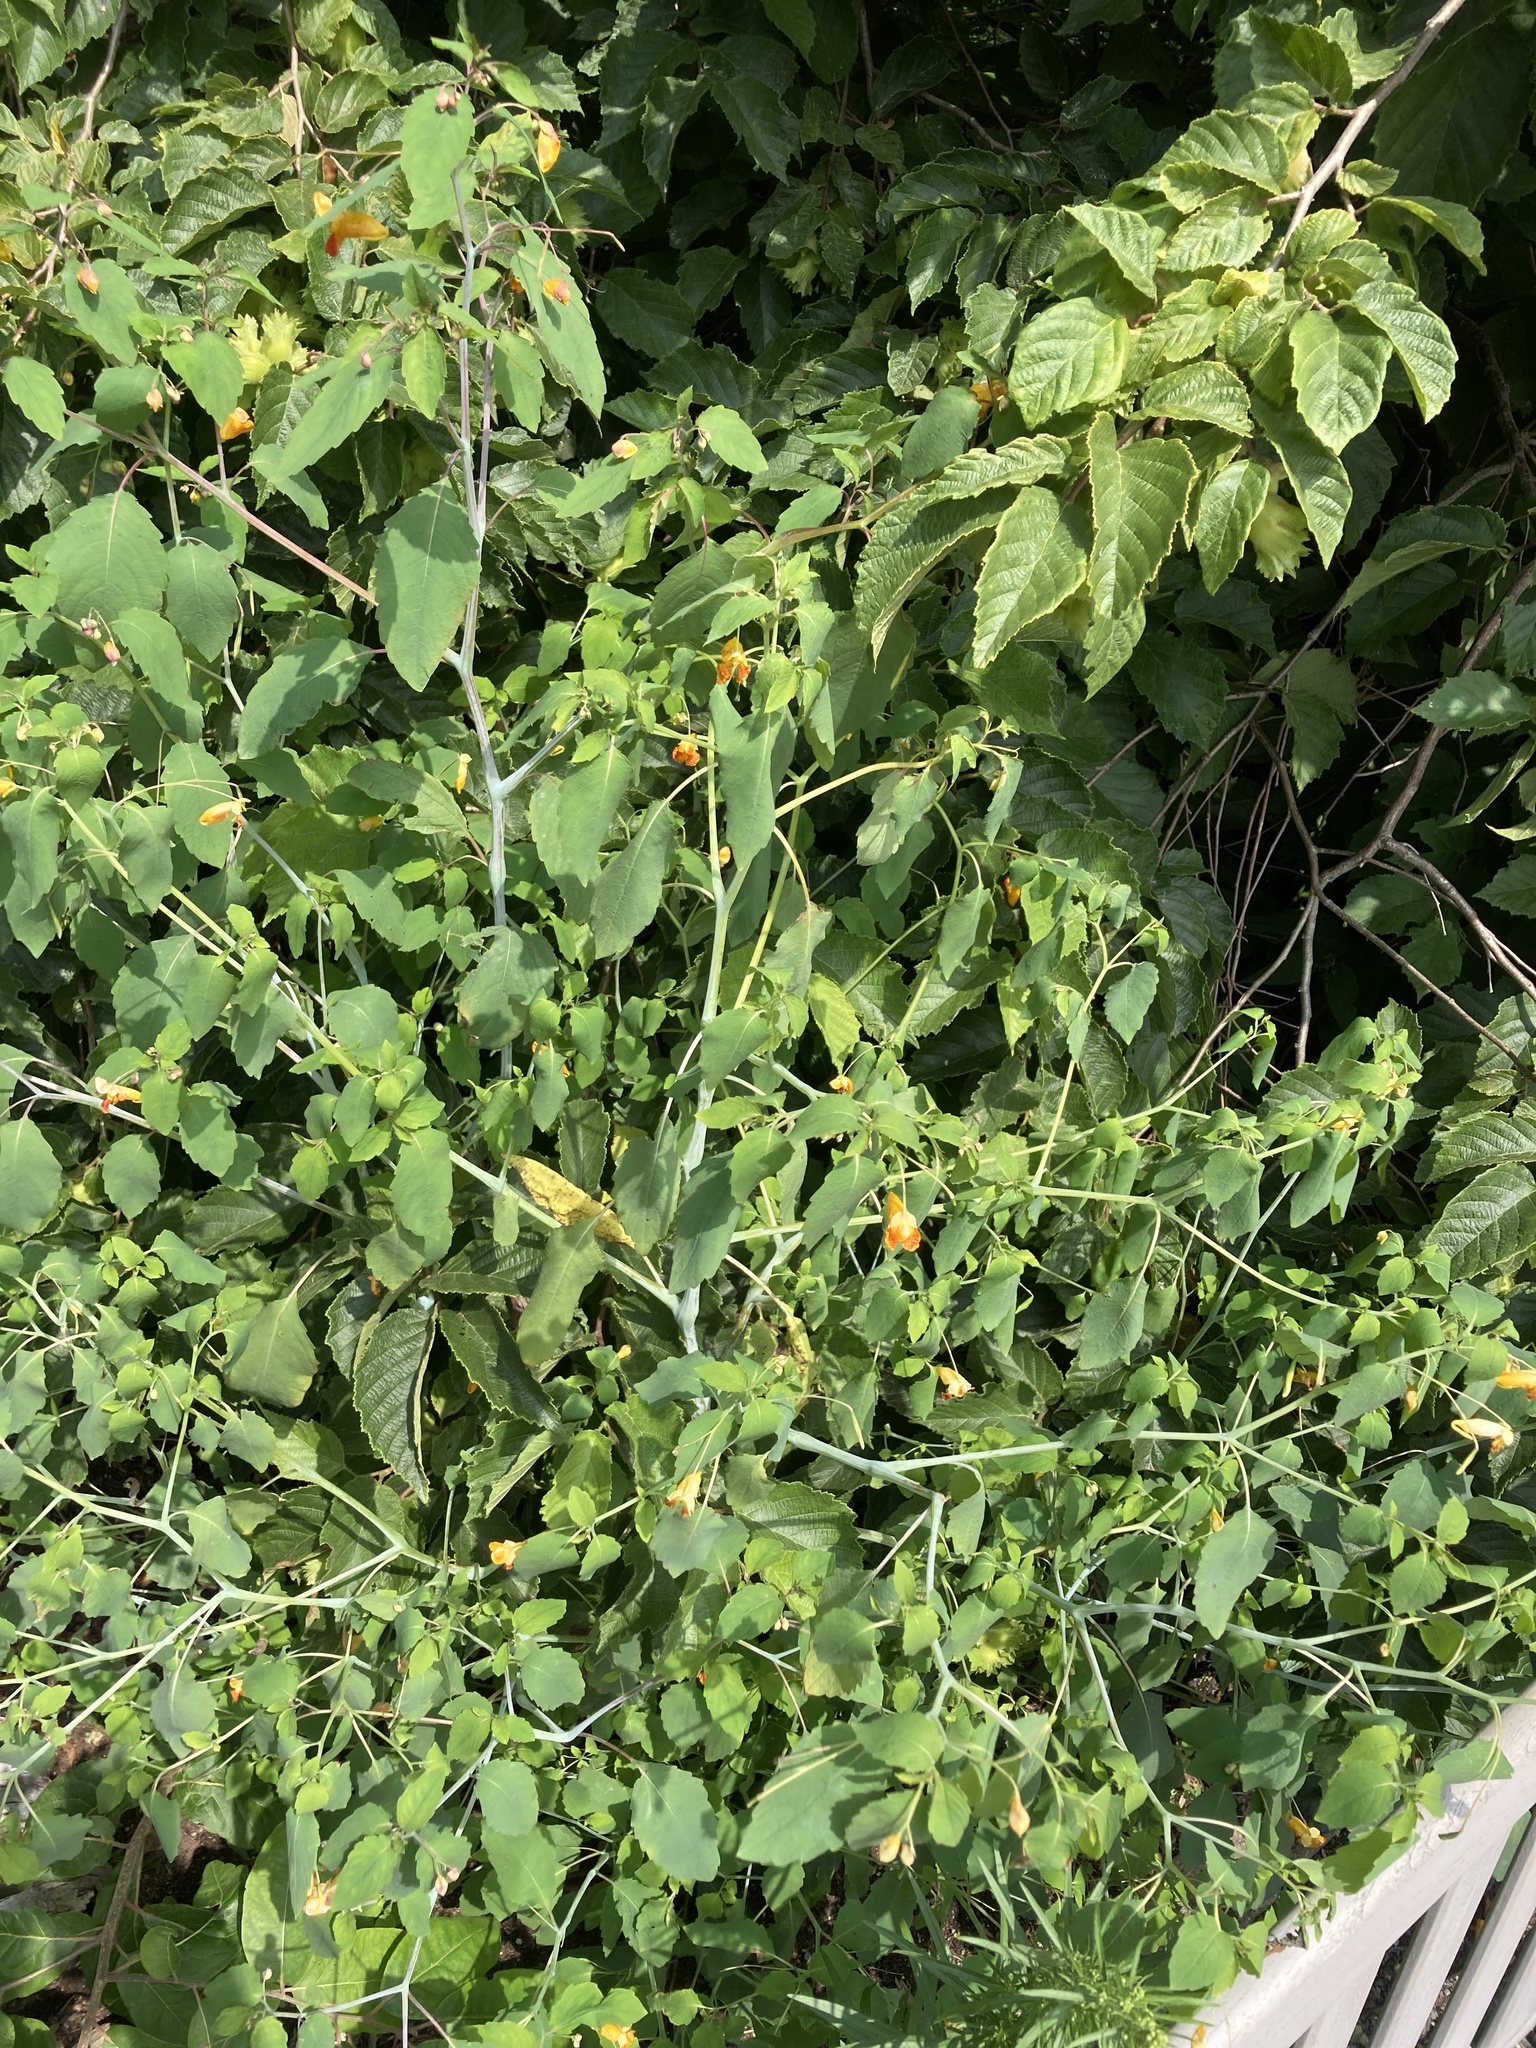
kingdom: Plantae
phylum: Tracheophyta
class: Magnoliopsida
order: Ericales
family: Balsaminaceae
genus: Impatiens
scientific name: Impatiens capensis
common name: Orange balsam
